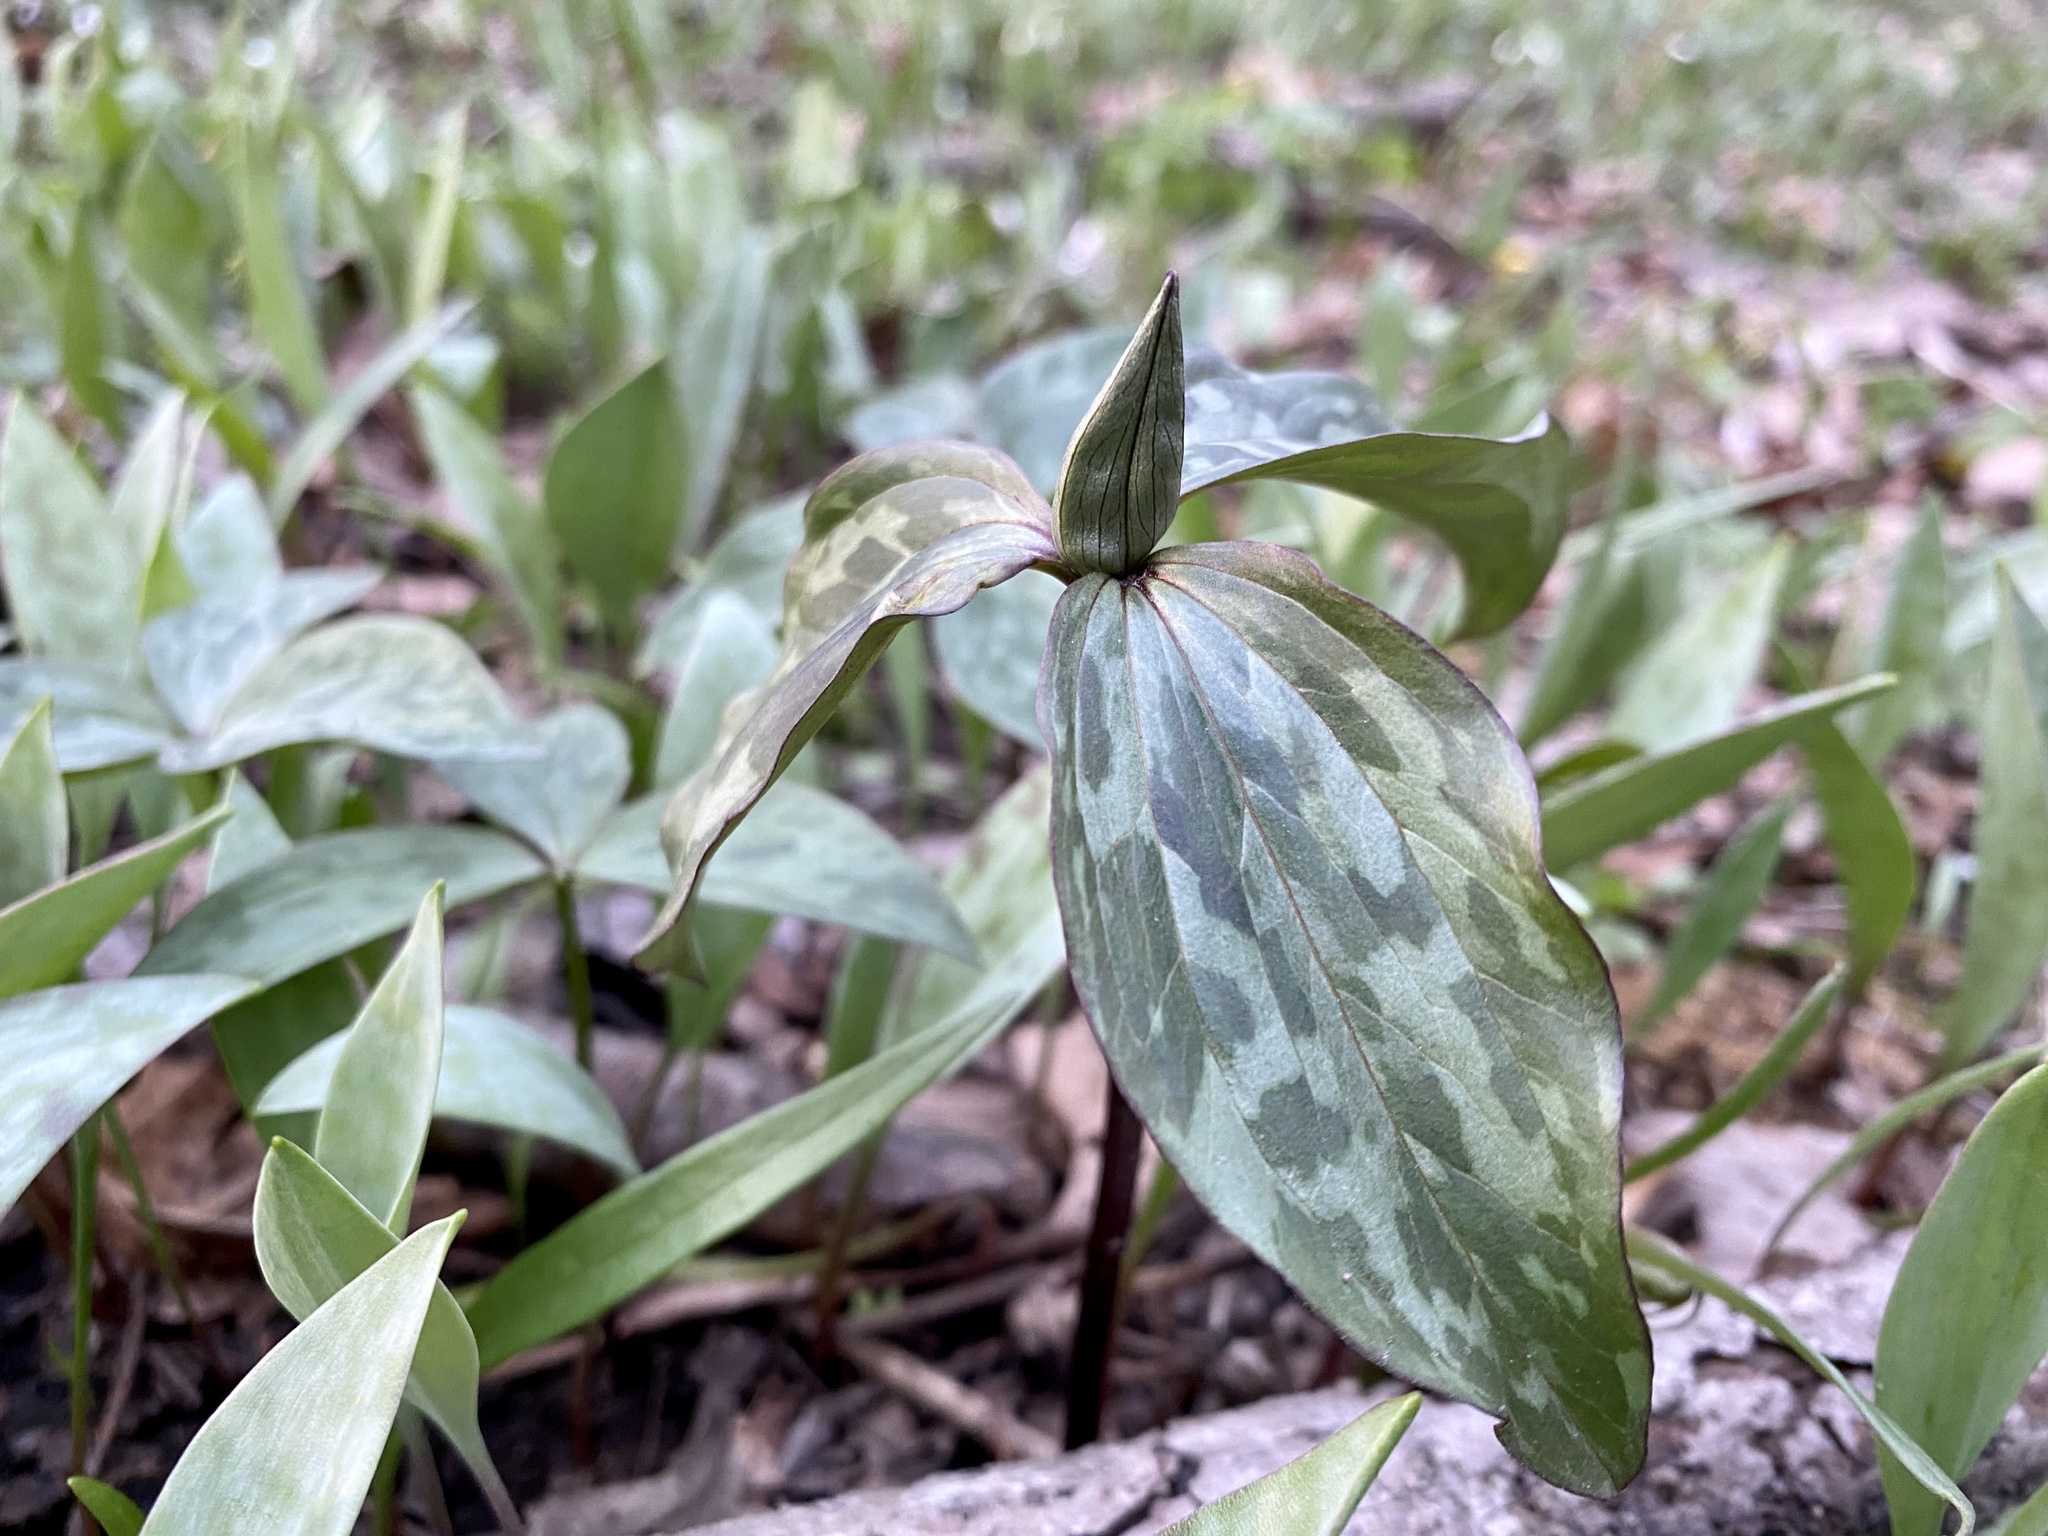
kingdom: Plantae
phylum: Tracheophyta
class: Liliopsida
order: Liliales
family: Melanthiaceae
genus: Trillium
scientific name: Trillium recurvatum
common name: Bloody butcher
